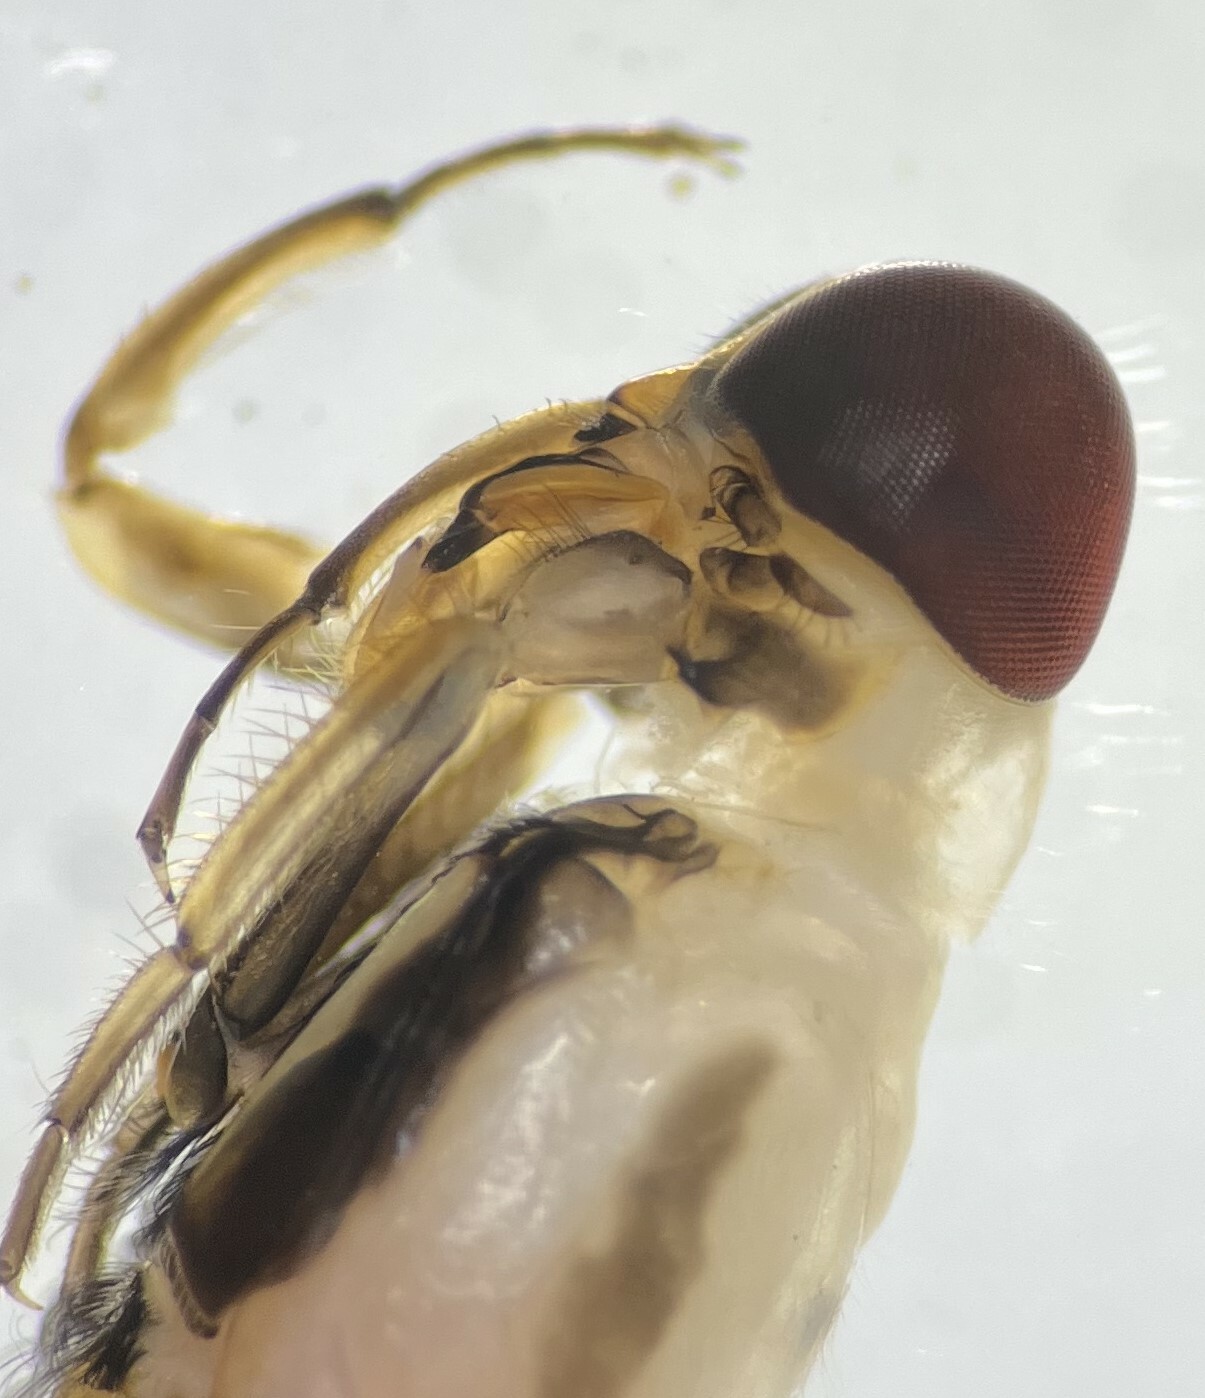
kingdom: Animalia
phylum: Arthropoda
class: Insecta
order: Hemiptera
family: Notonectidae
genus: Buenoa
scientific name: Buenoa confusa
